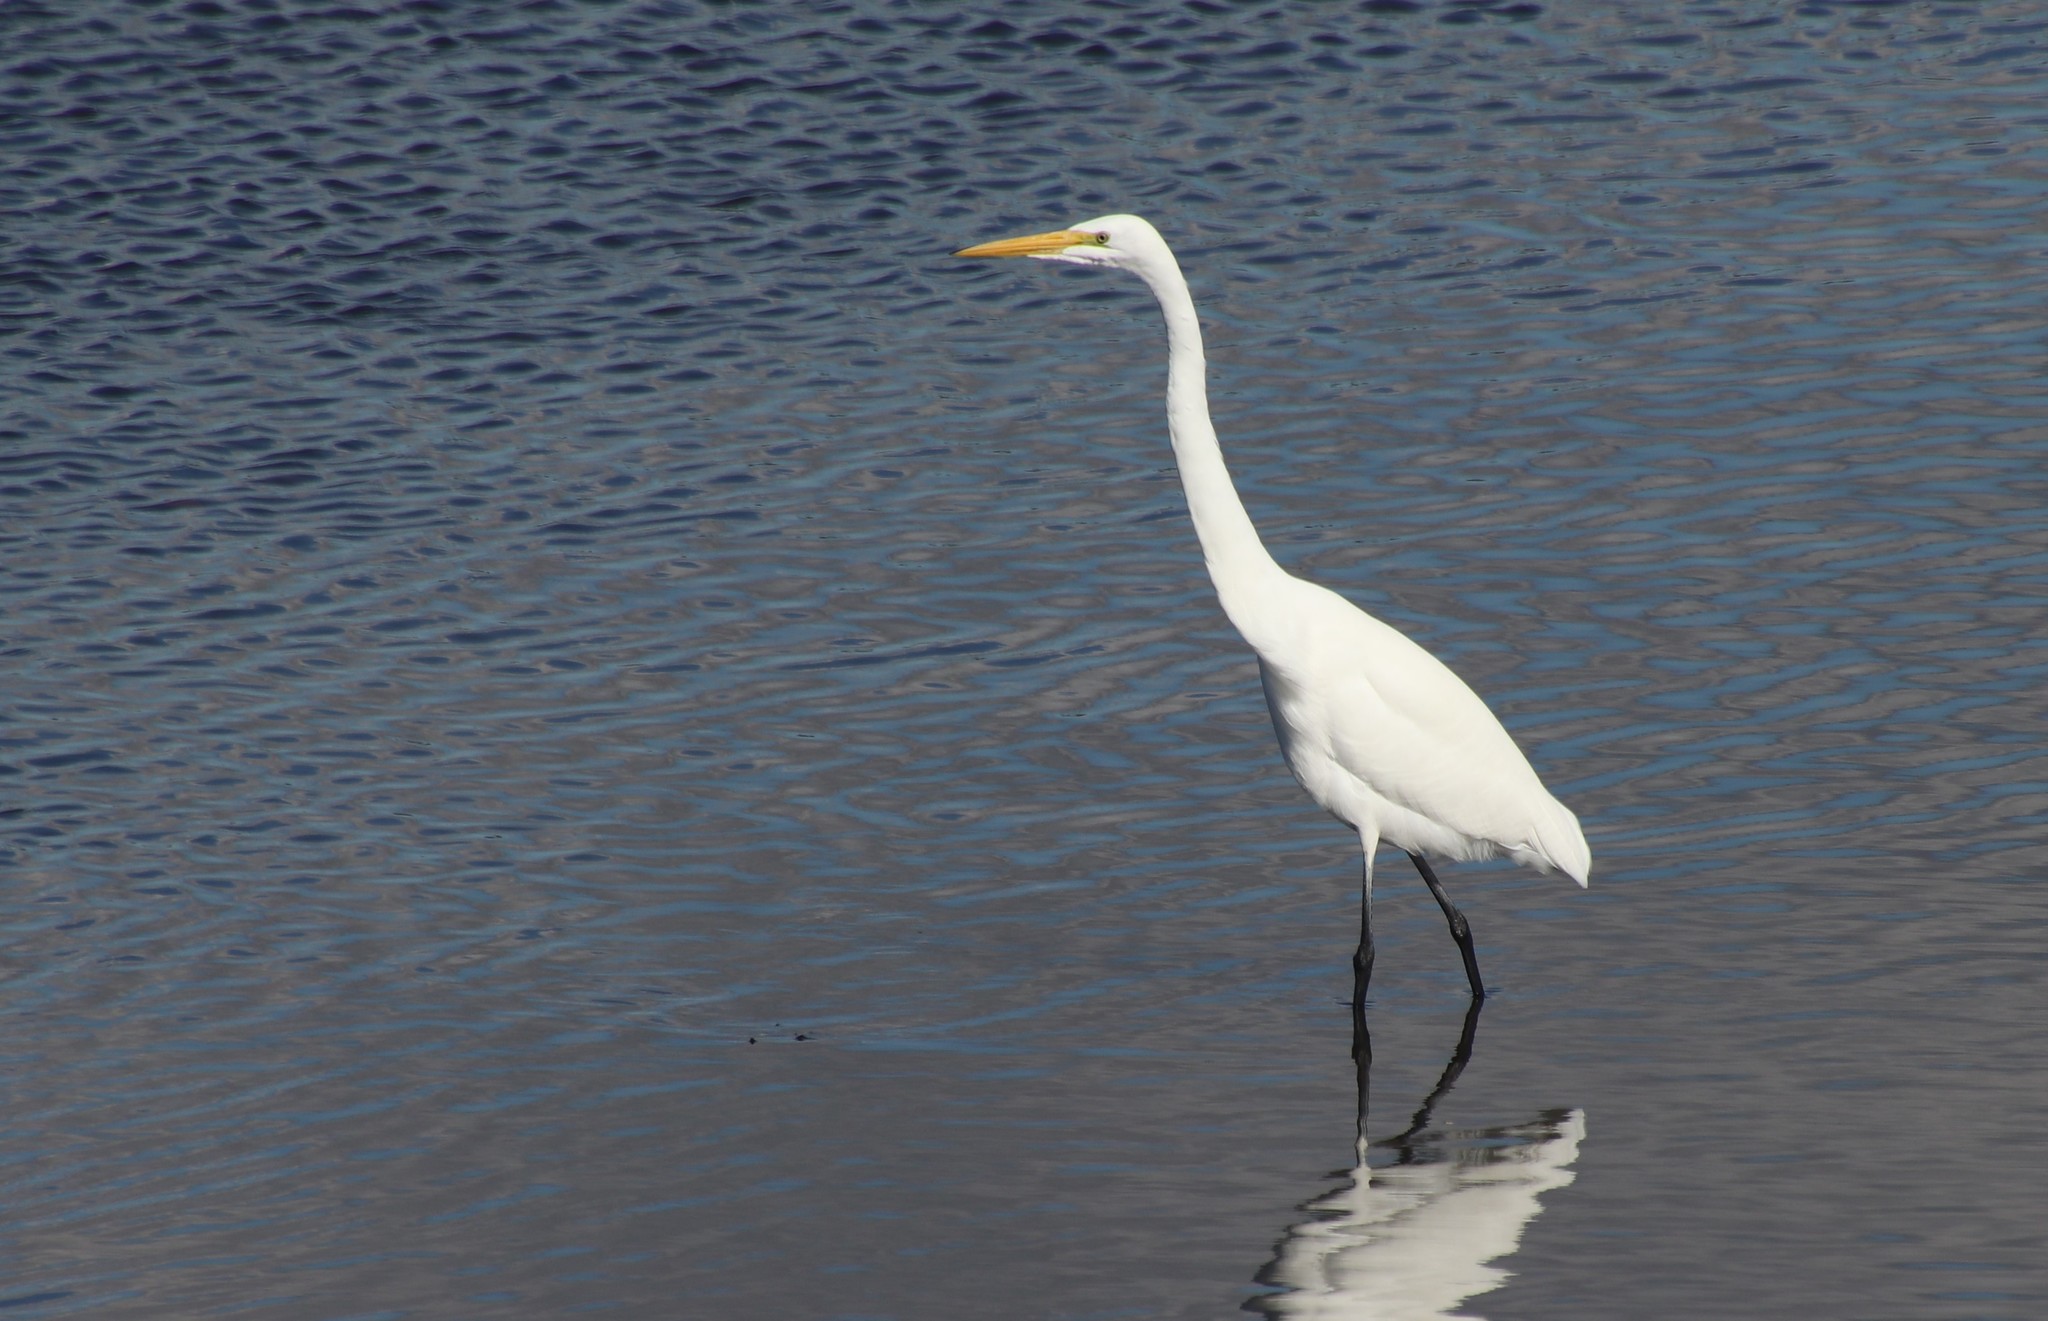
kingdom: Animalia
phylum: Chordata
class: Aves
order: Pelecaniformes
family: Ardeidae
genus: Ardea
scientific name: Ardea alba
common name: Great egret
